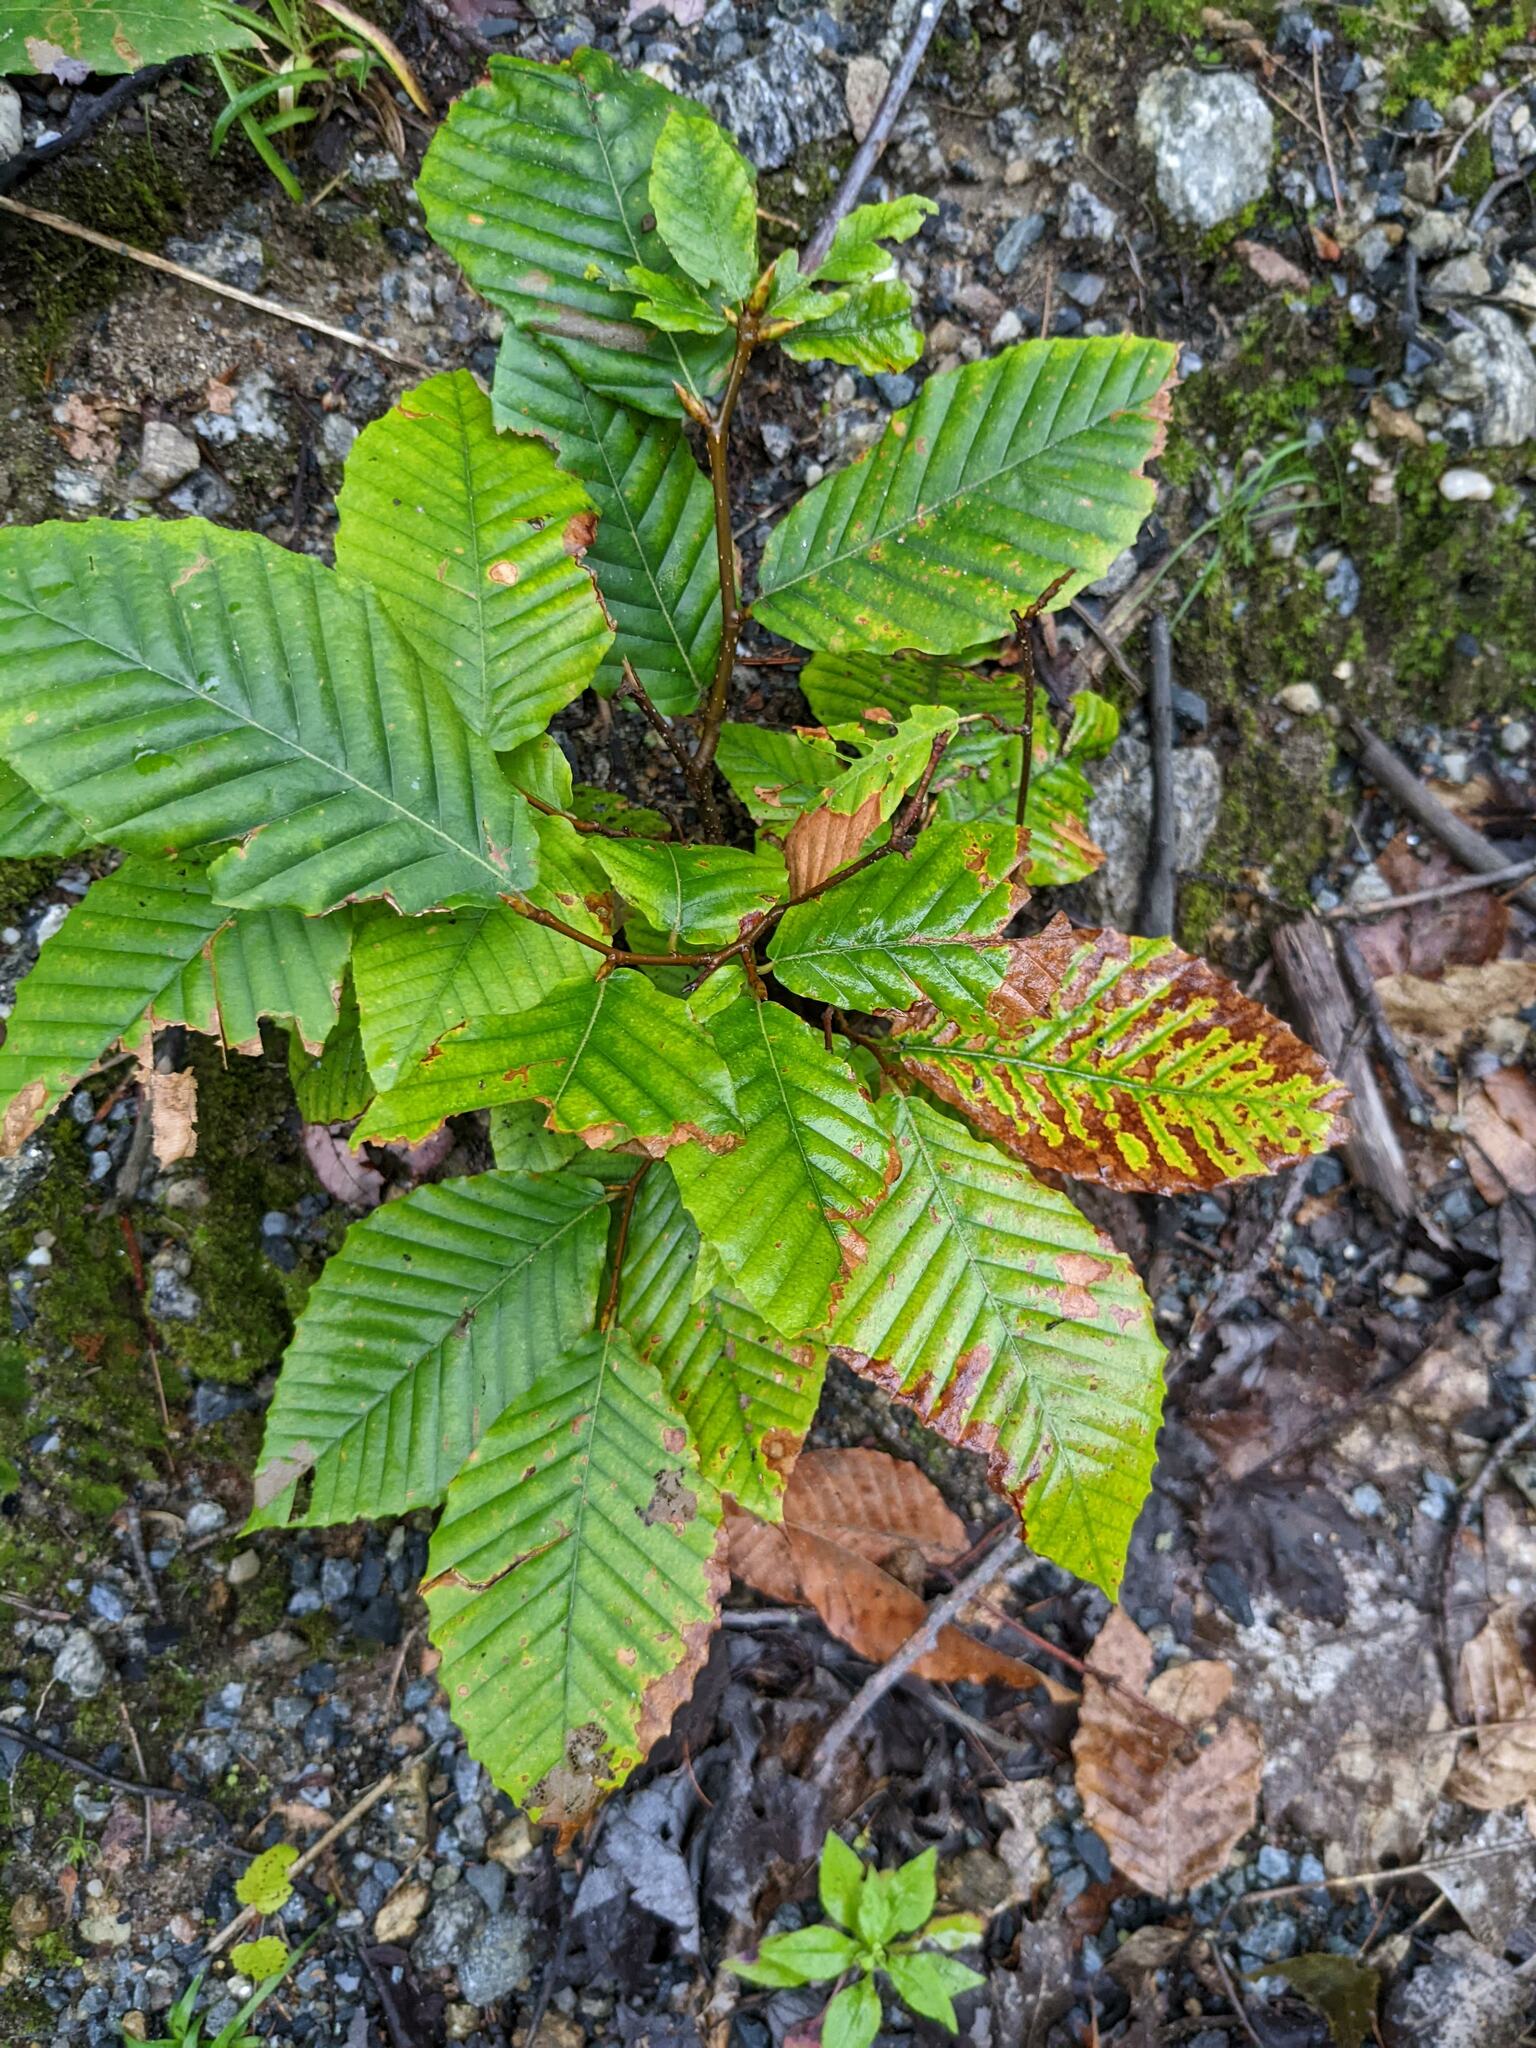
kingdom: Plantae
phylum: Tracheophyta
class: Magnoliopsida
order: Fagales
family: Fagaceae
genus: Fagus
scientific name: Fagus grandifolia
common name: American beech
